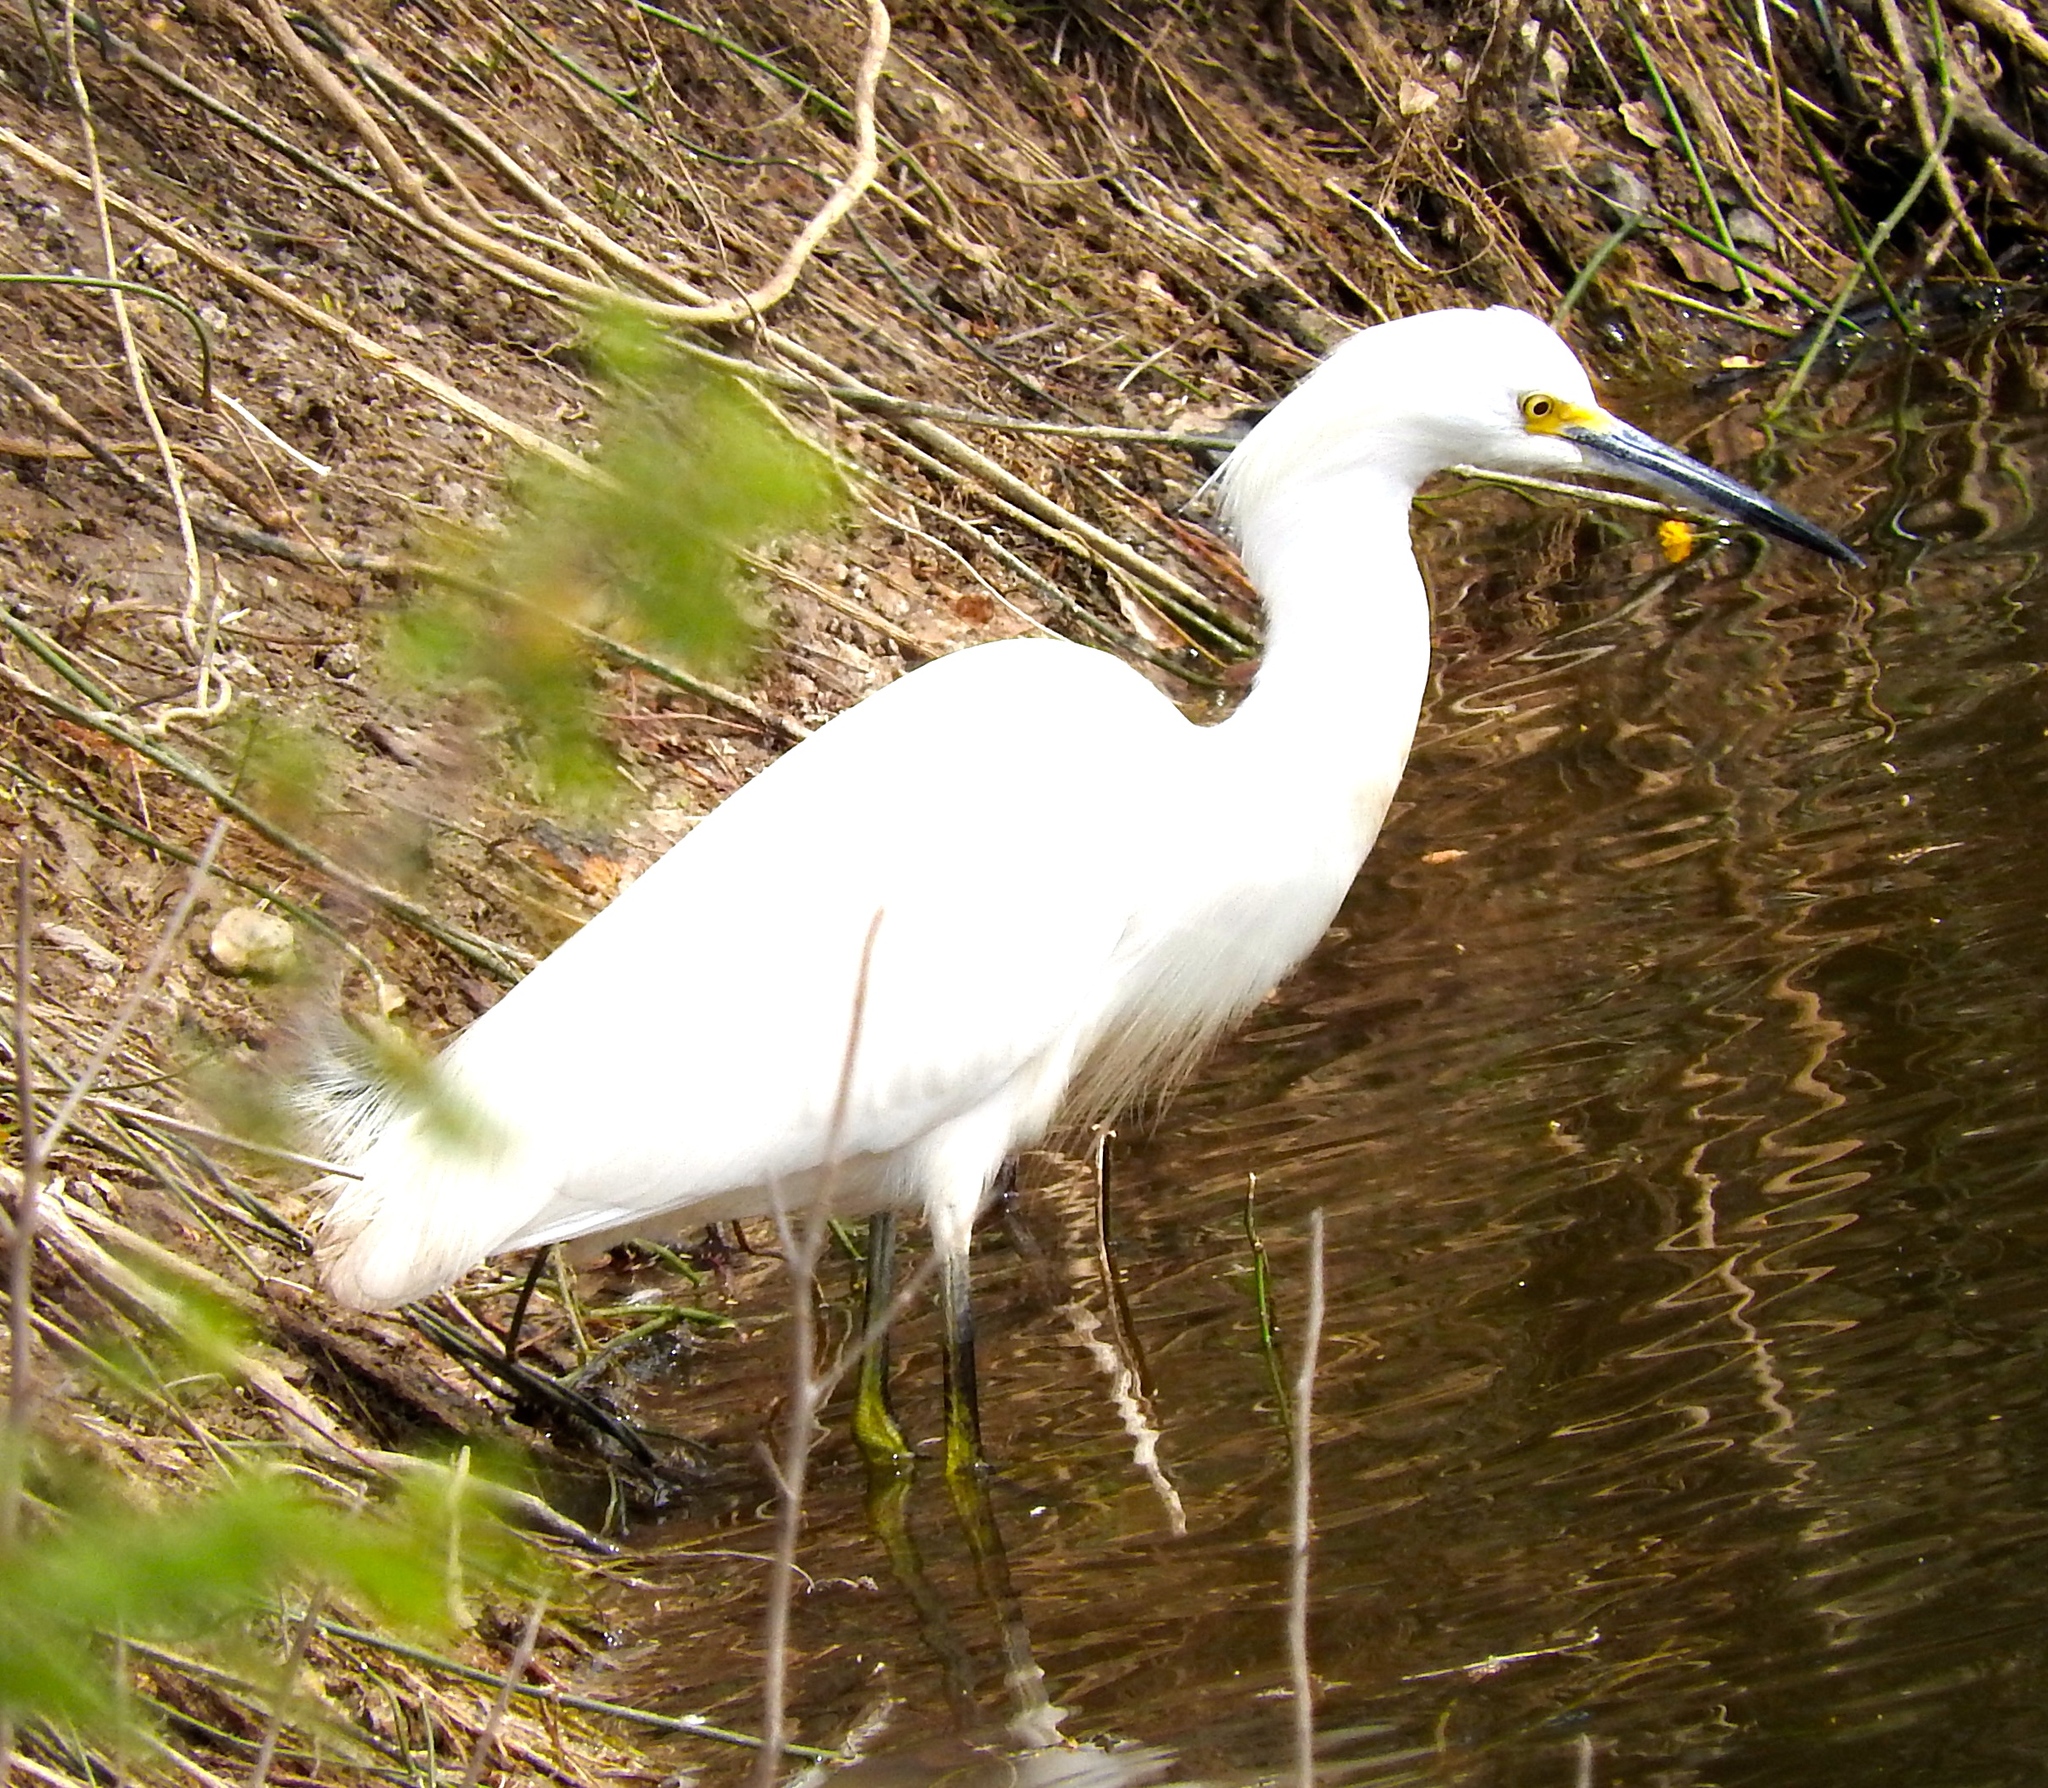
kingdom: Animalia
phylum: Chordata
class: Aves
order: Pelecaniformes
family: Ardeidae
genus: Egretta
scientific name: Egretta thula
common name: Snowy egret
